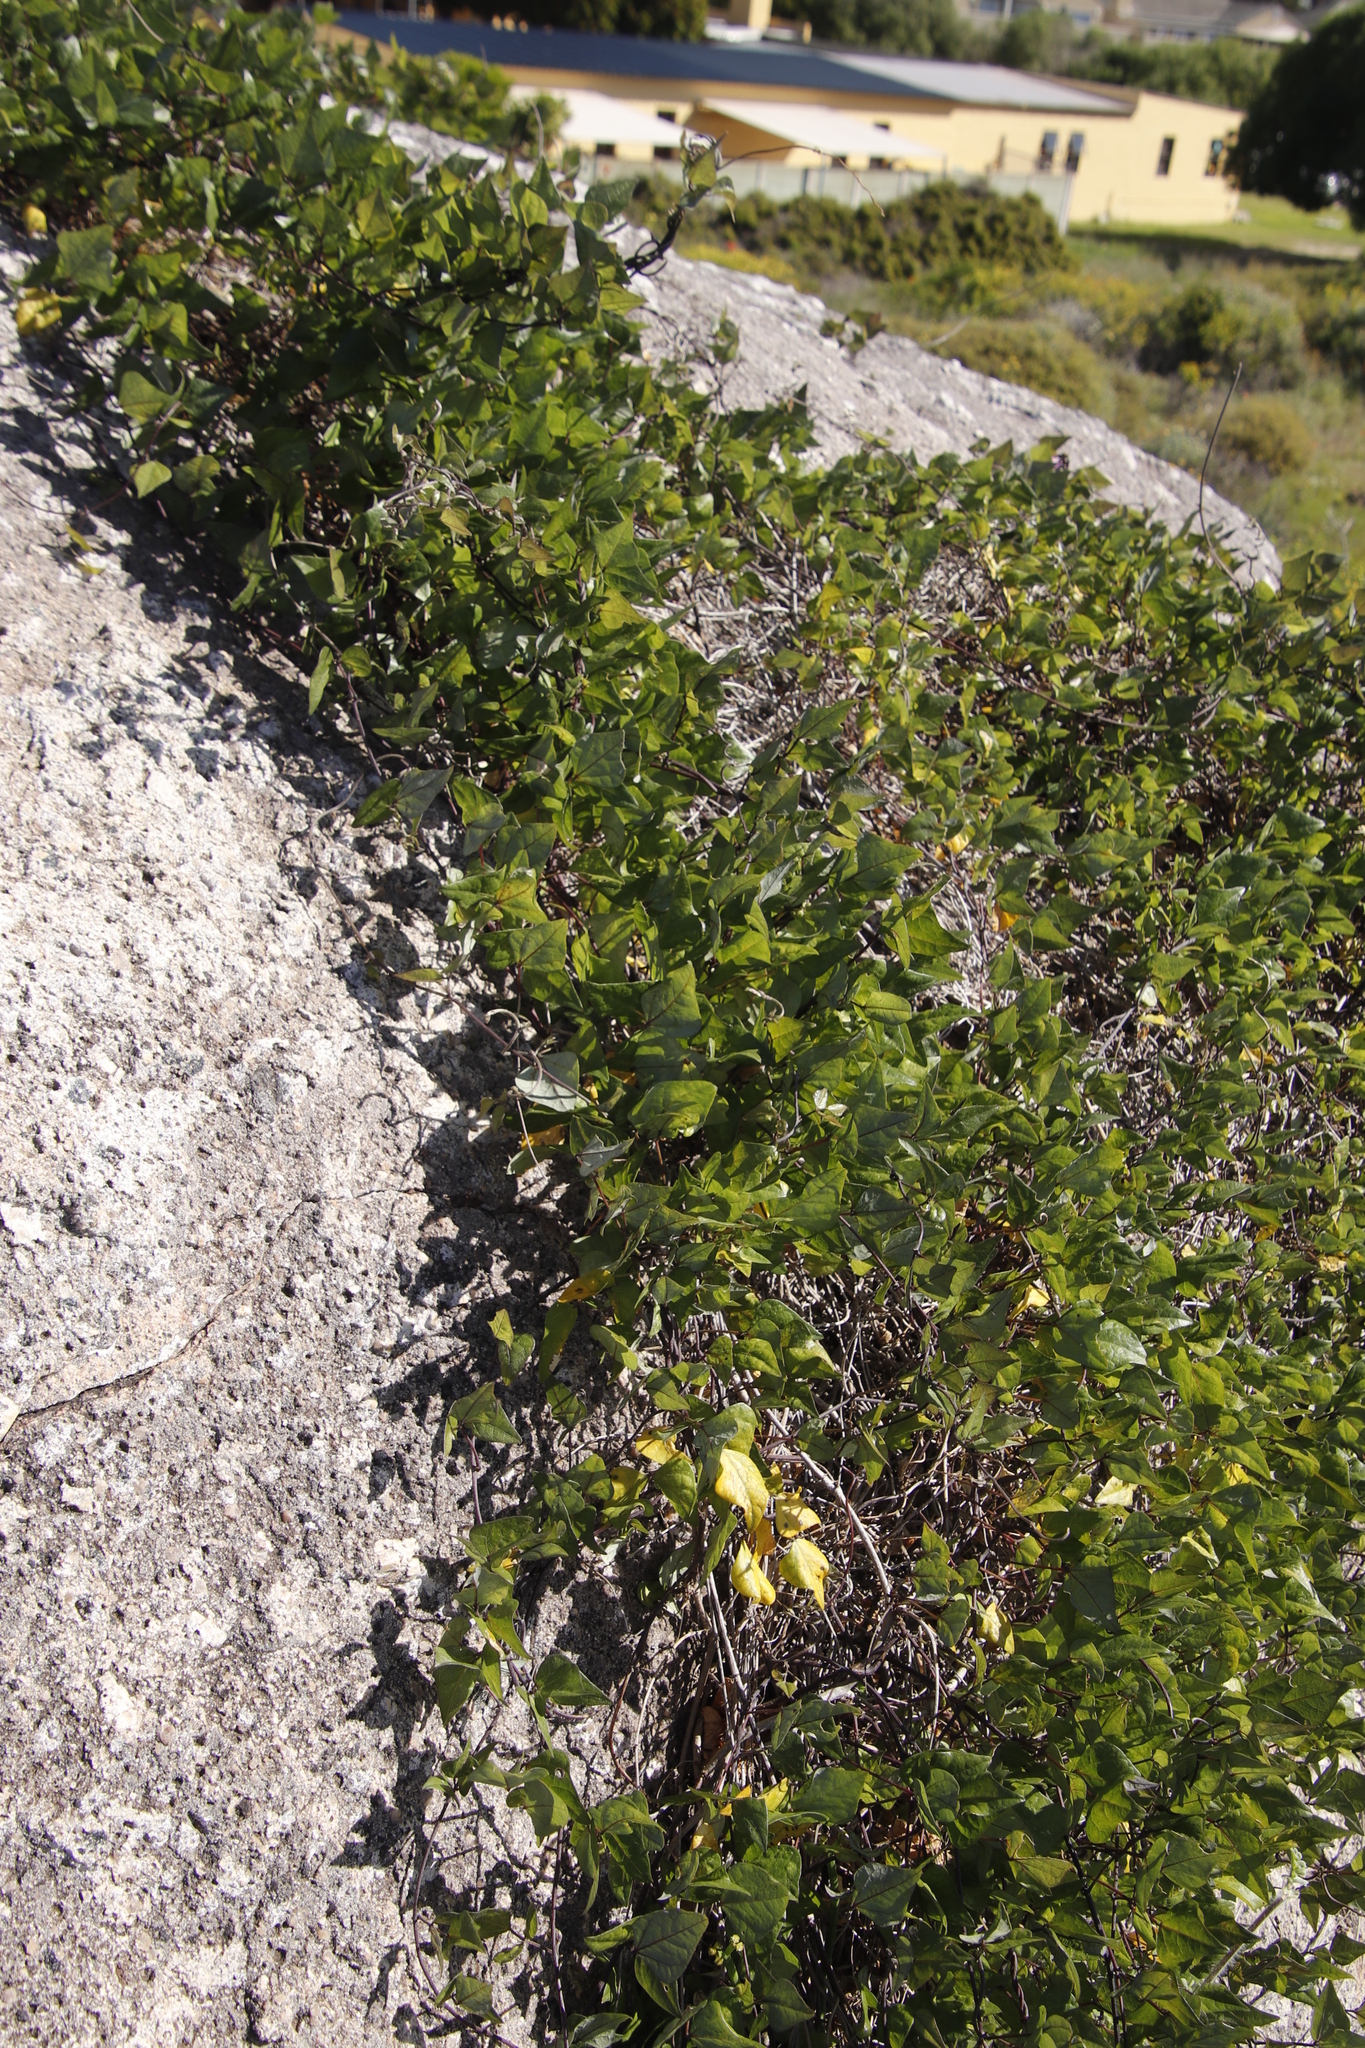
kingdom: Plantae
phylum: Tracheophyta
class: Magnoliopsida
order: Fabales
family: Fabaceae
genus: Dipogon
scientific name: Dipogon lignosus
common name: Okie bean
